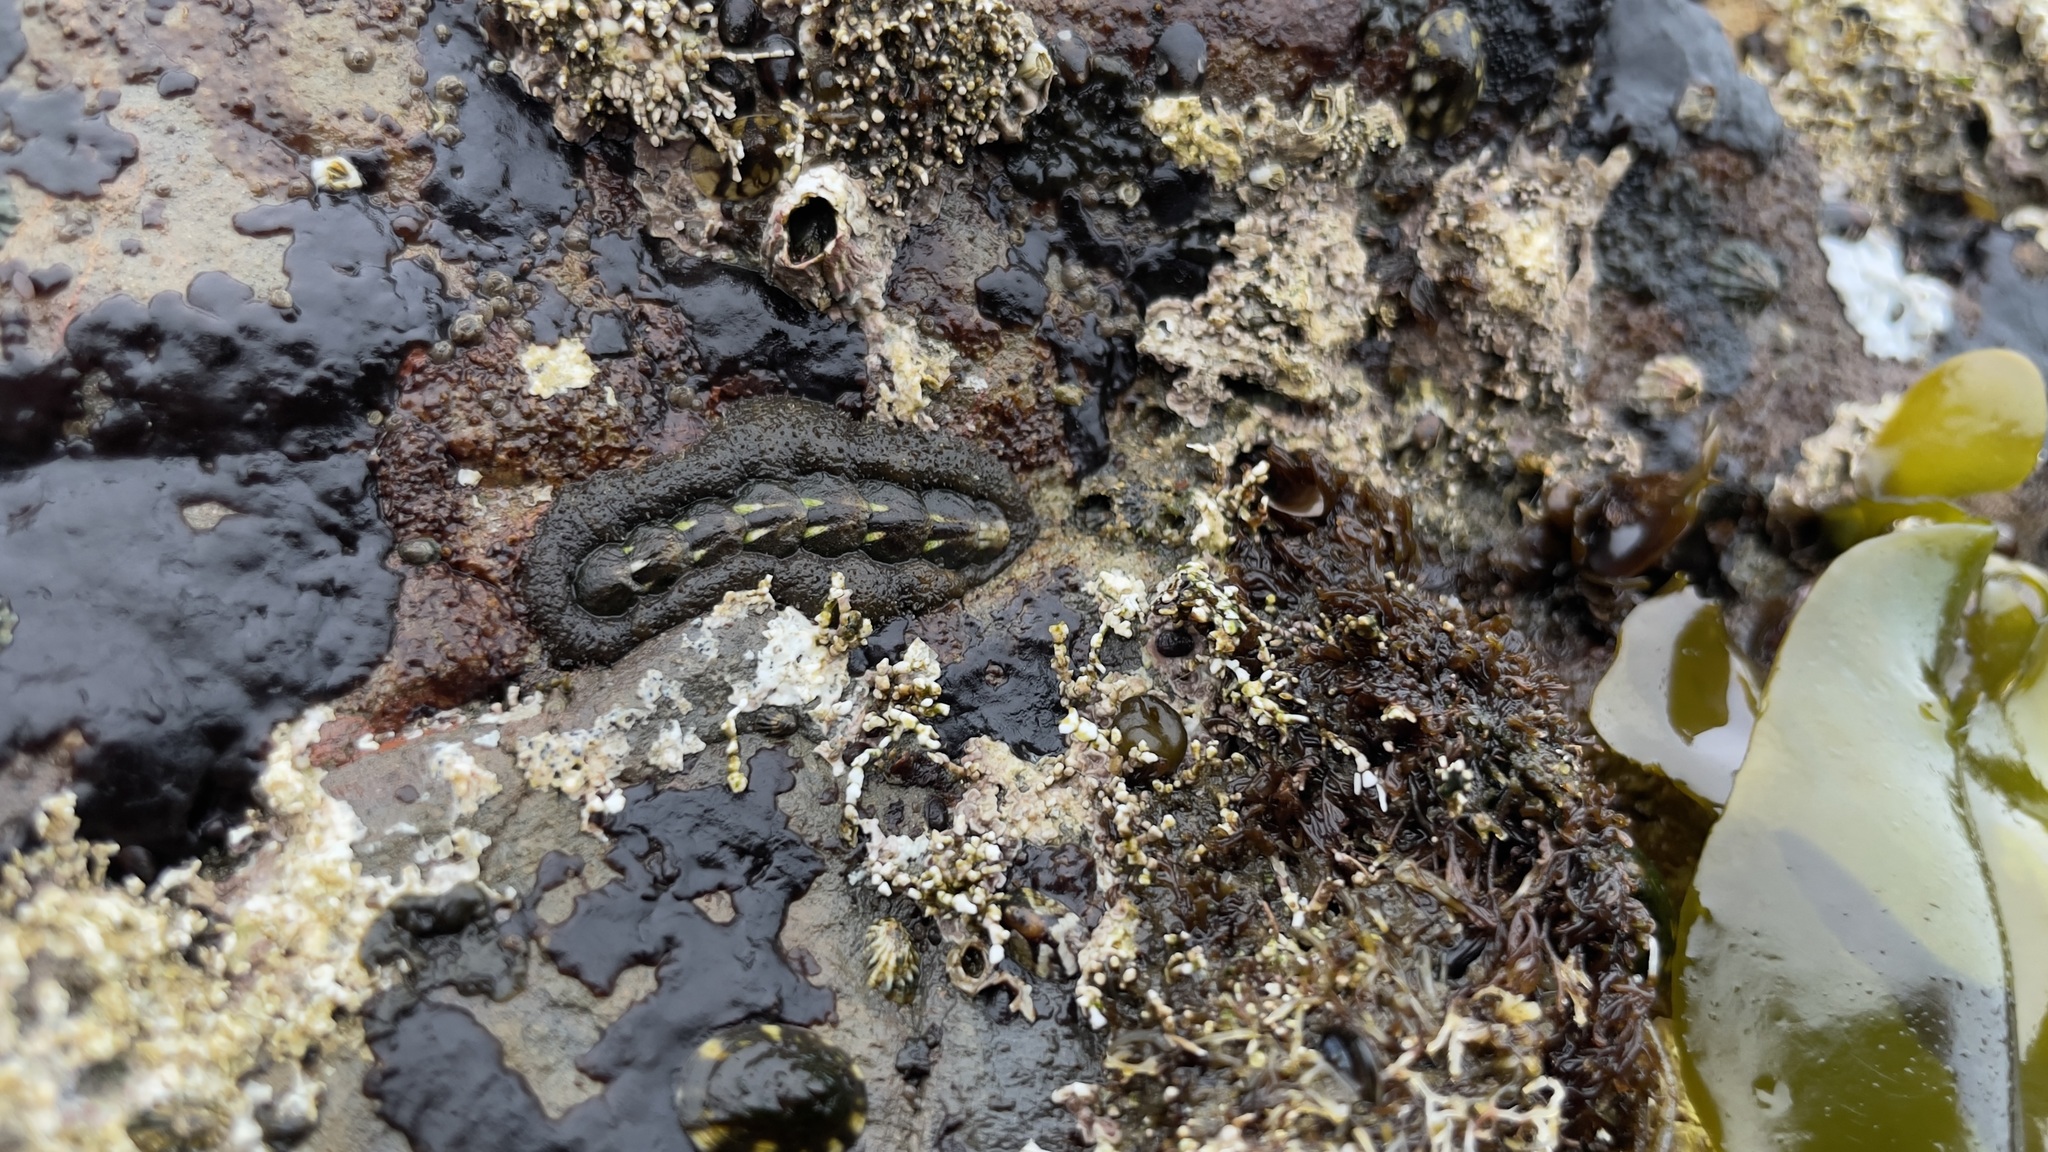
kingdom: Animalia
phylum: Mollusca
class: Polyplacophora
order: Chitonida
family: Tonicellidae
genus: Nuttallina
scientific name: Nuttallina californica
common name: California nuttall chiton
